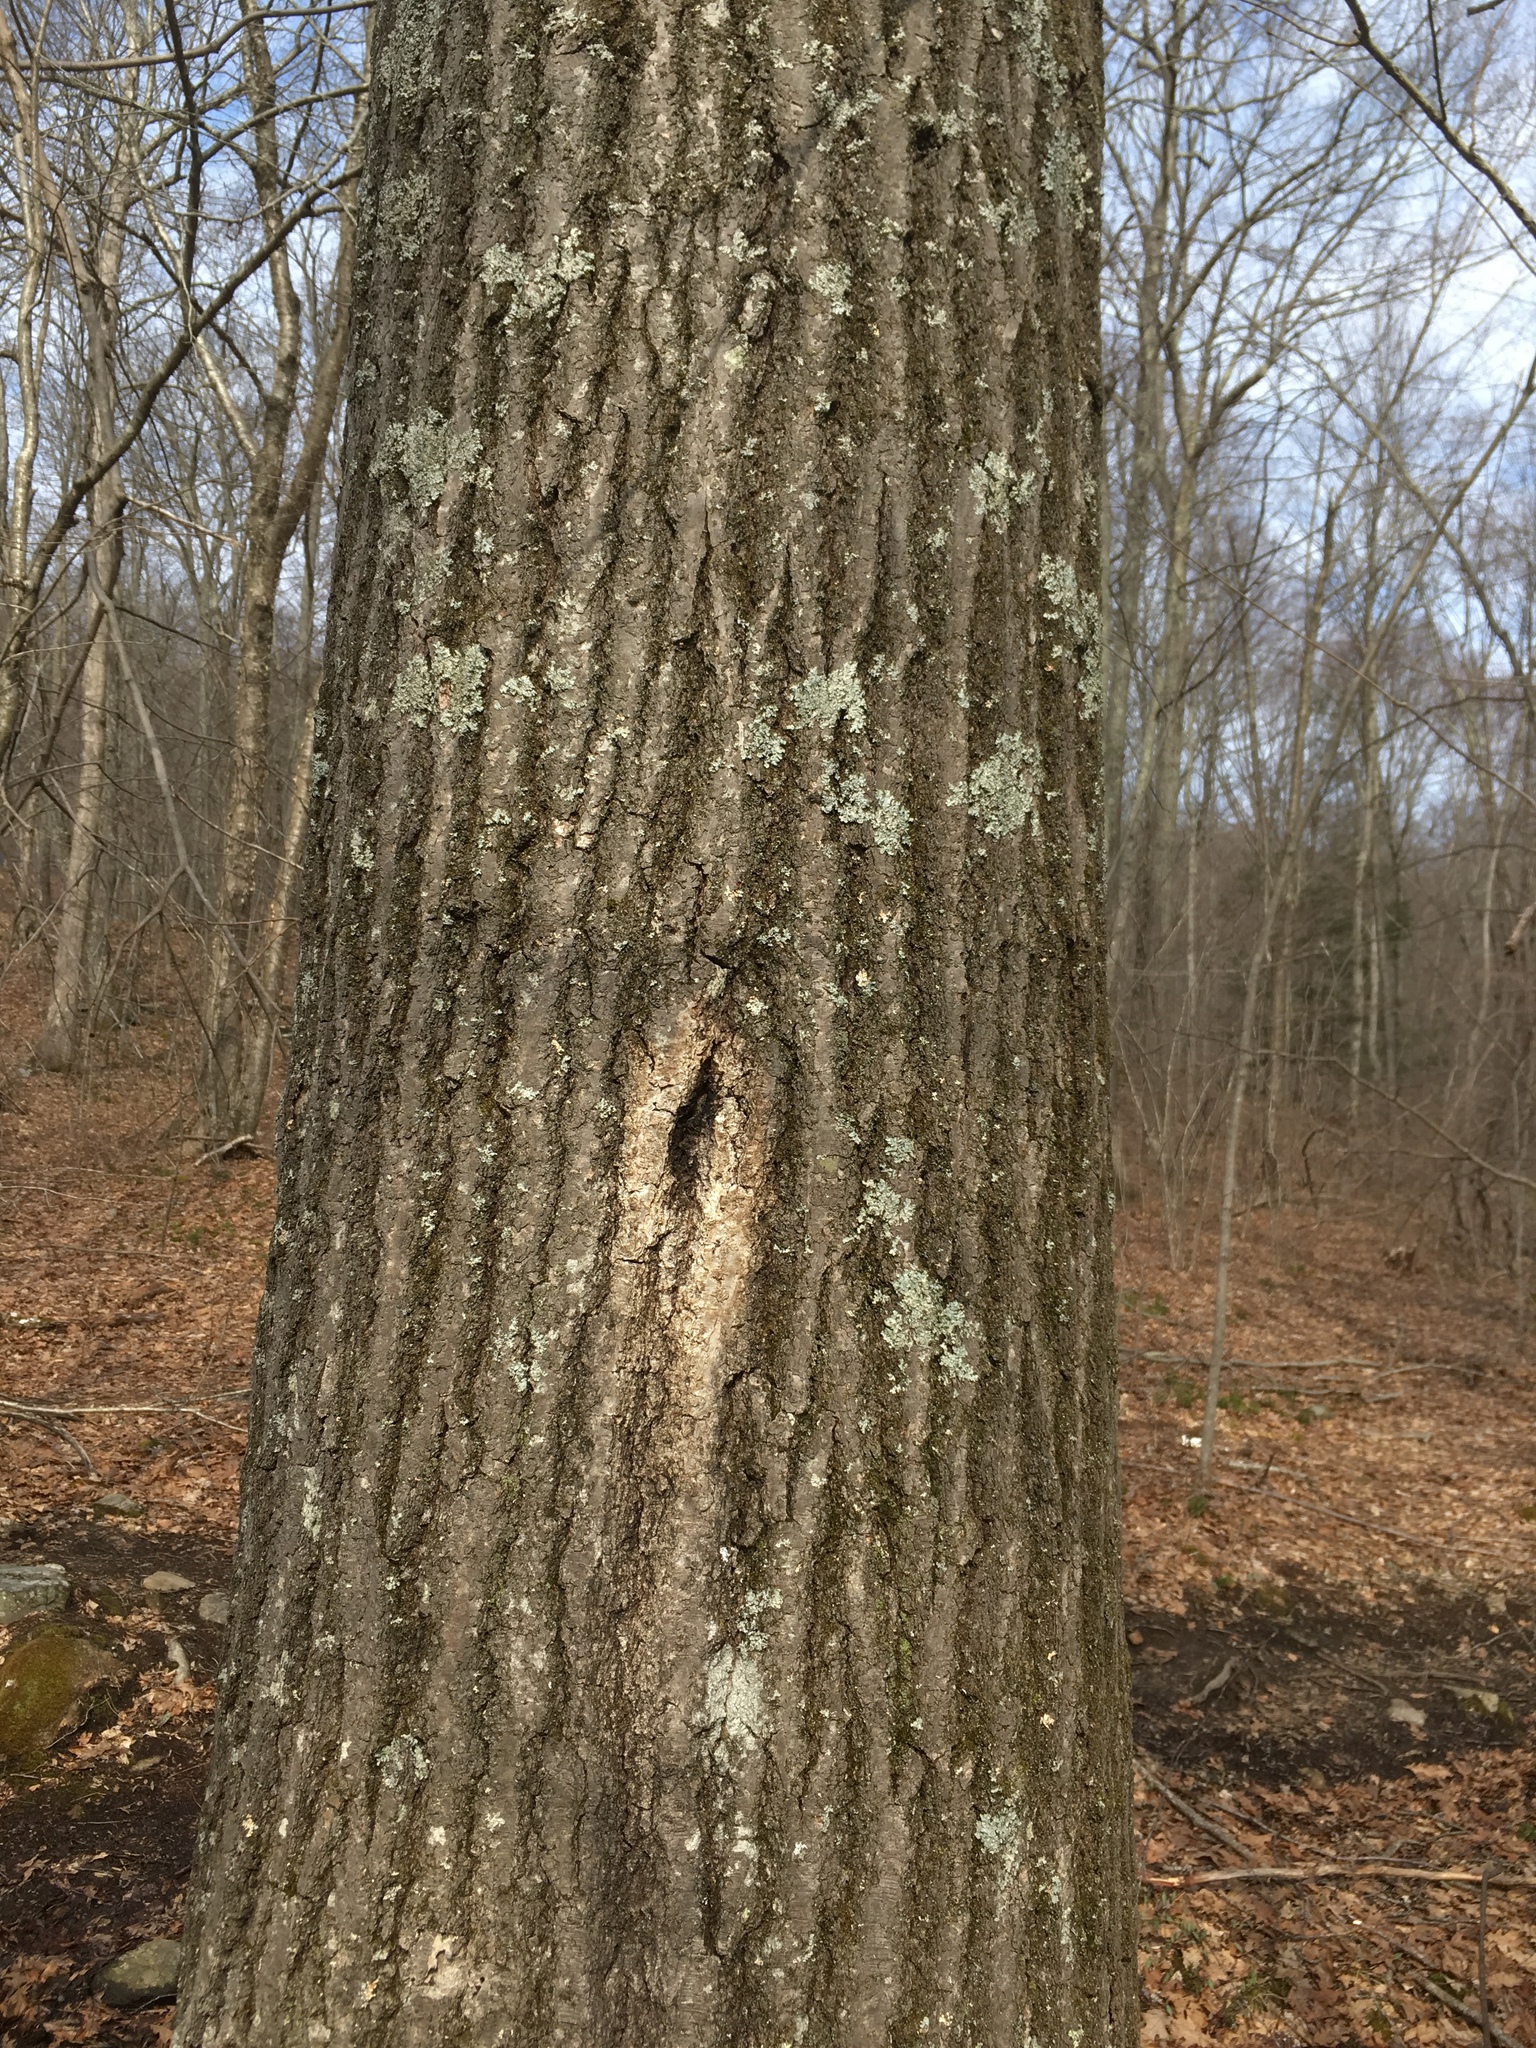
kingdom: Plantae
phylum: Tracheophyta
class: Magnoliopsida
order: Fagales
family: Fagaceae
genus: Quercus
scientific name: Quercus rubra
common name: Red oak
